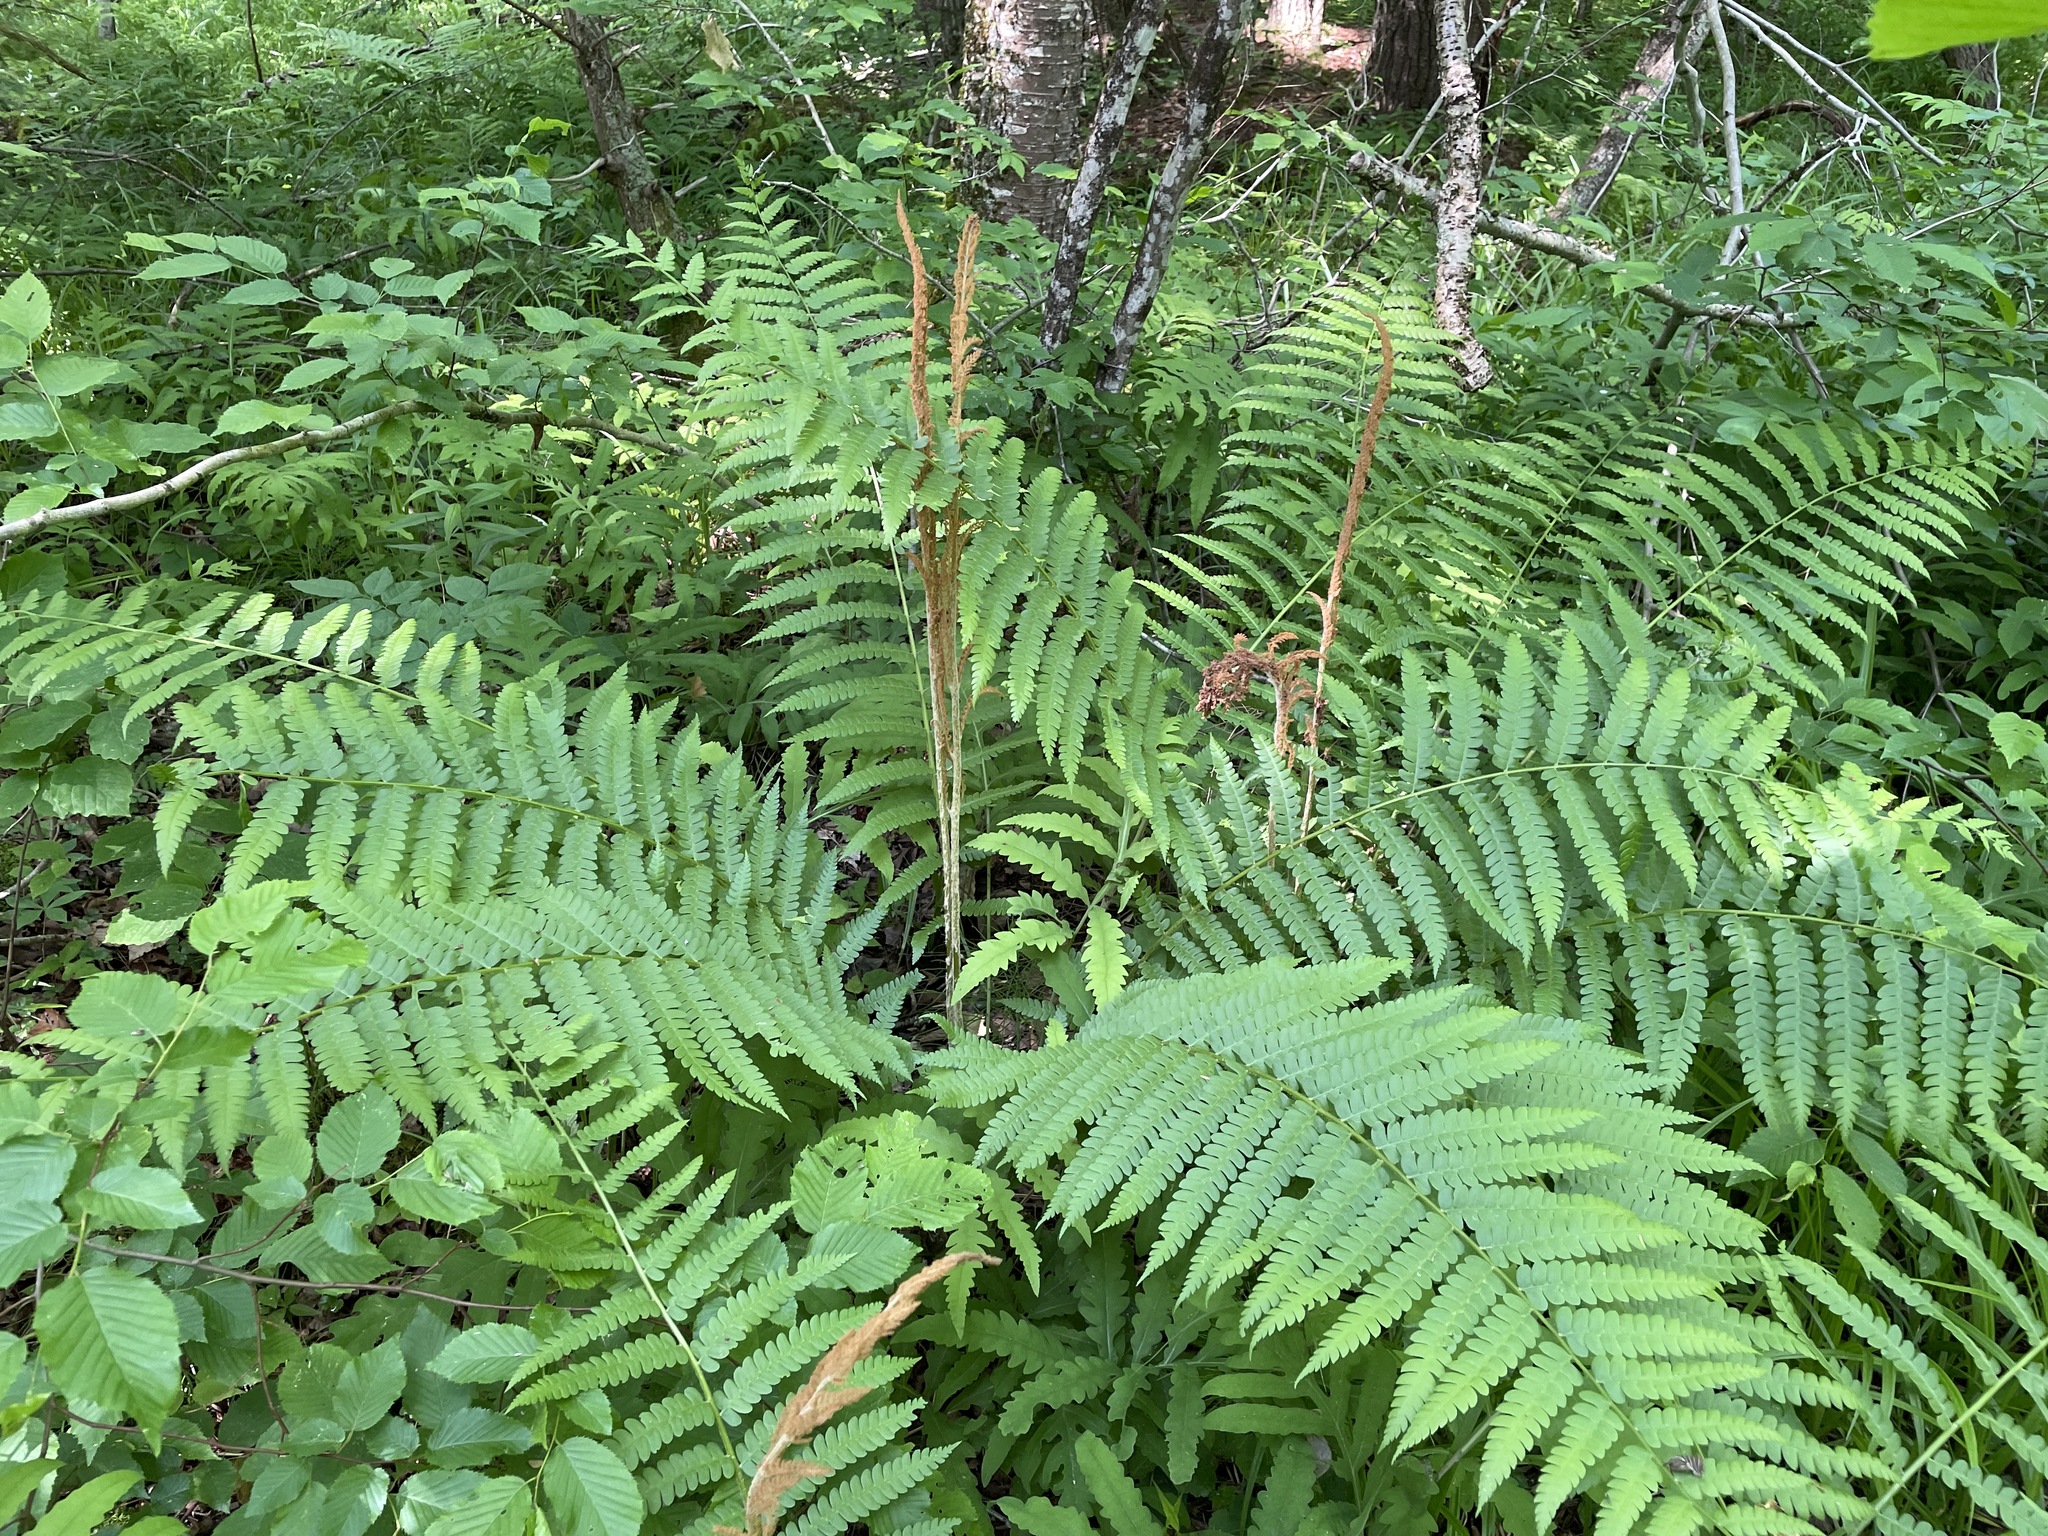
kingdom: Plantae
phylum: Tracheophyta
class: Polypodiopsida
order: Osmundales
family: Osmundaceae
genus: Osmundastrum
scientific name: Osmundastrum cinnamomeum
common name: Cinnamon fern
